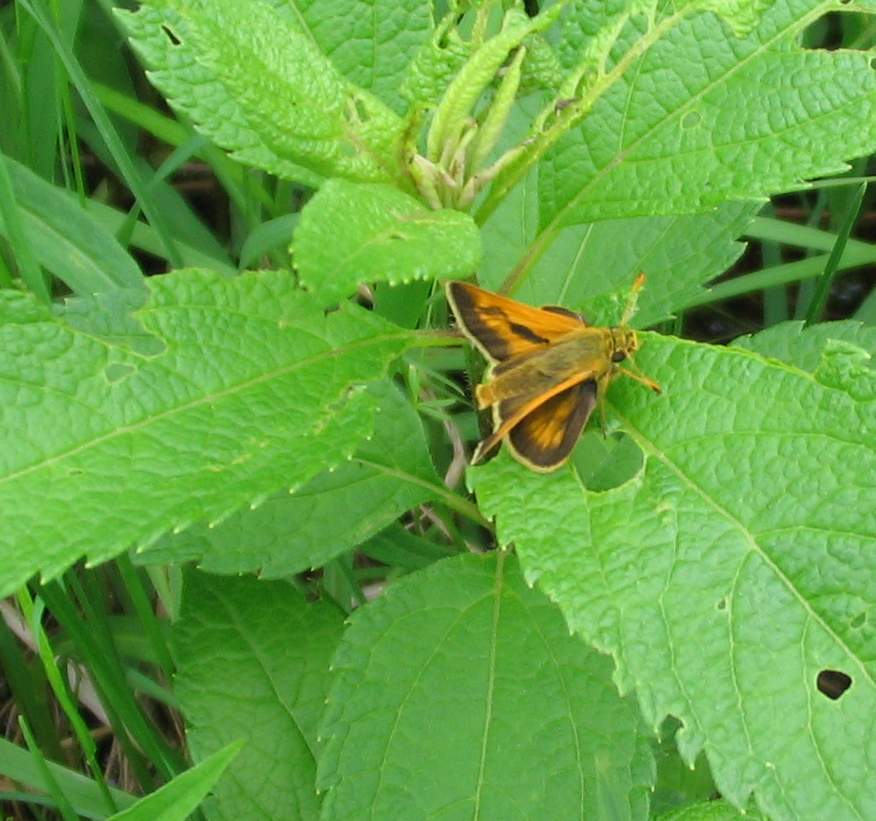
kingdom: Animalia
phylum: Arthropoda
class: Insecta
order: Lepidoptera
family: Hesperiidae
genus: Polites
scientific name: Polites mystic
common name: Long dash
